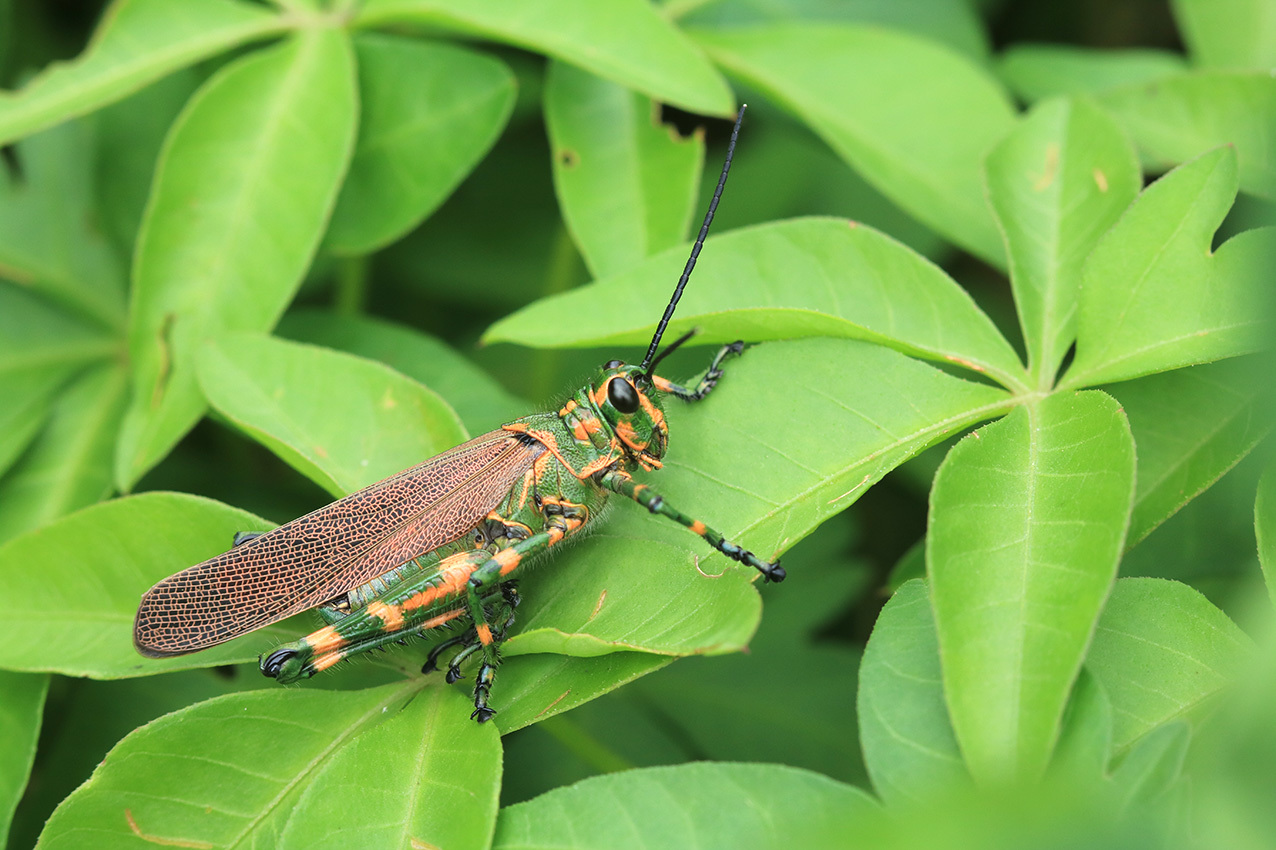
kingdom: Animalia
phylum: Arthropoda
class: Insecta
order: Orthoptera
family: Romaleidae
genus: Chromacris
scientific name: Chromacris speciosa
